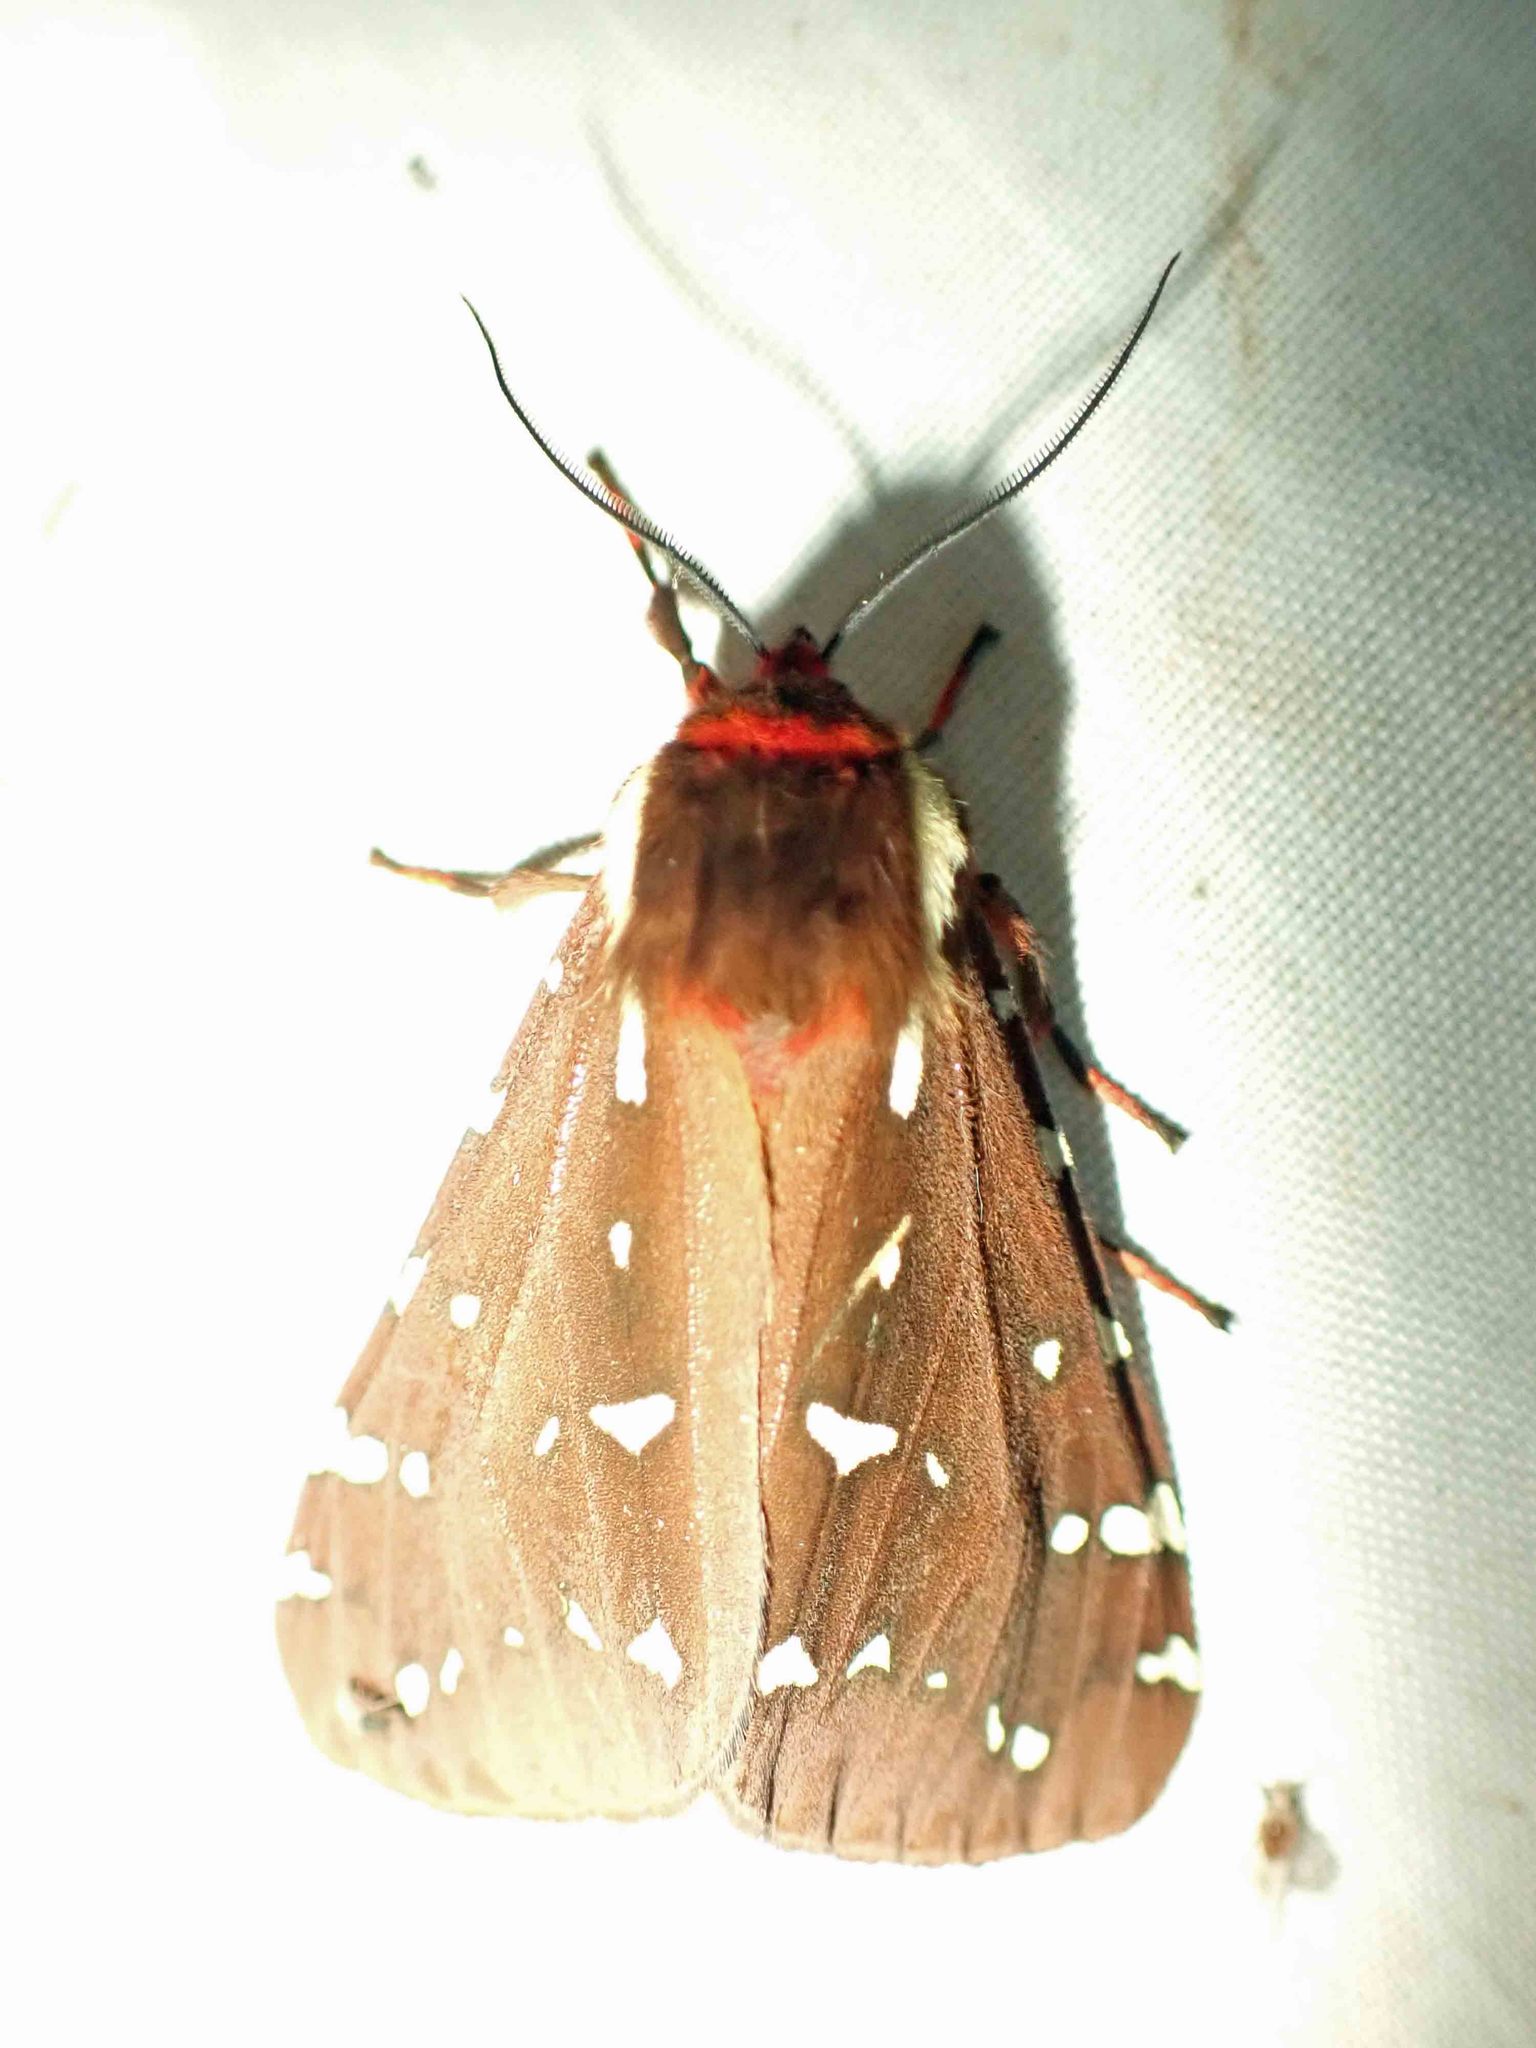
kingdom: Animalia
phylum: Arthropoda
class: Insecta
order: Lepidoptera
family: Erebidae
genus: Arctia
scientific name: Arctia parthenos
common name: St. lawrence tiger moth
